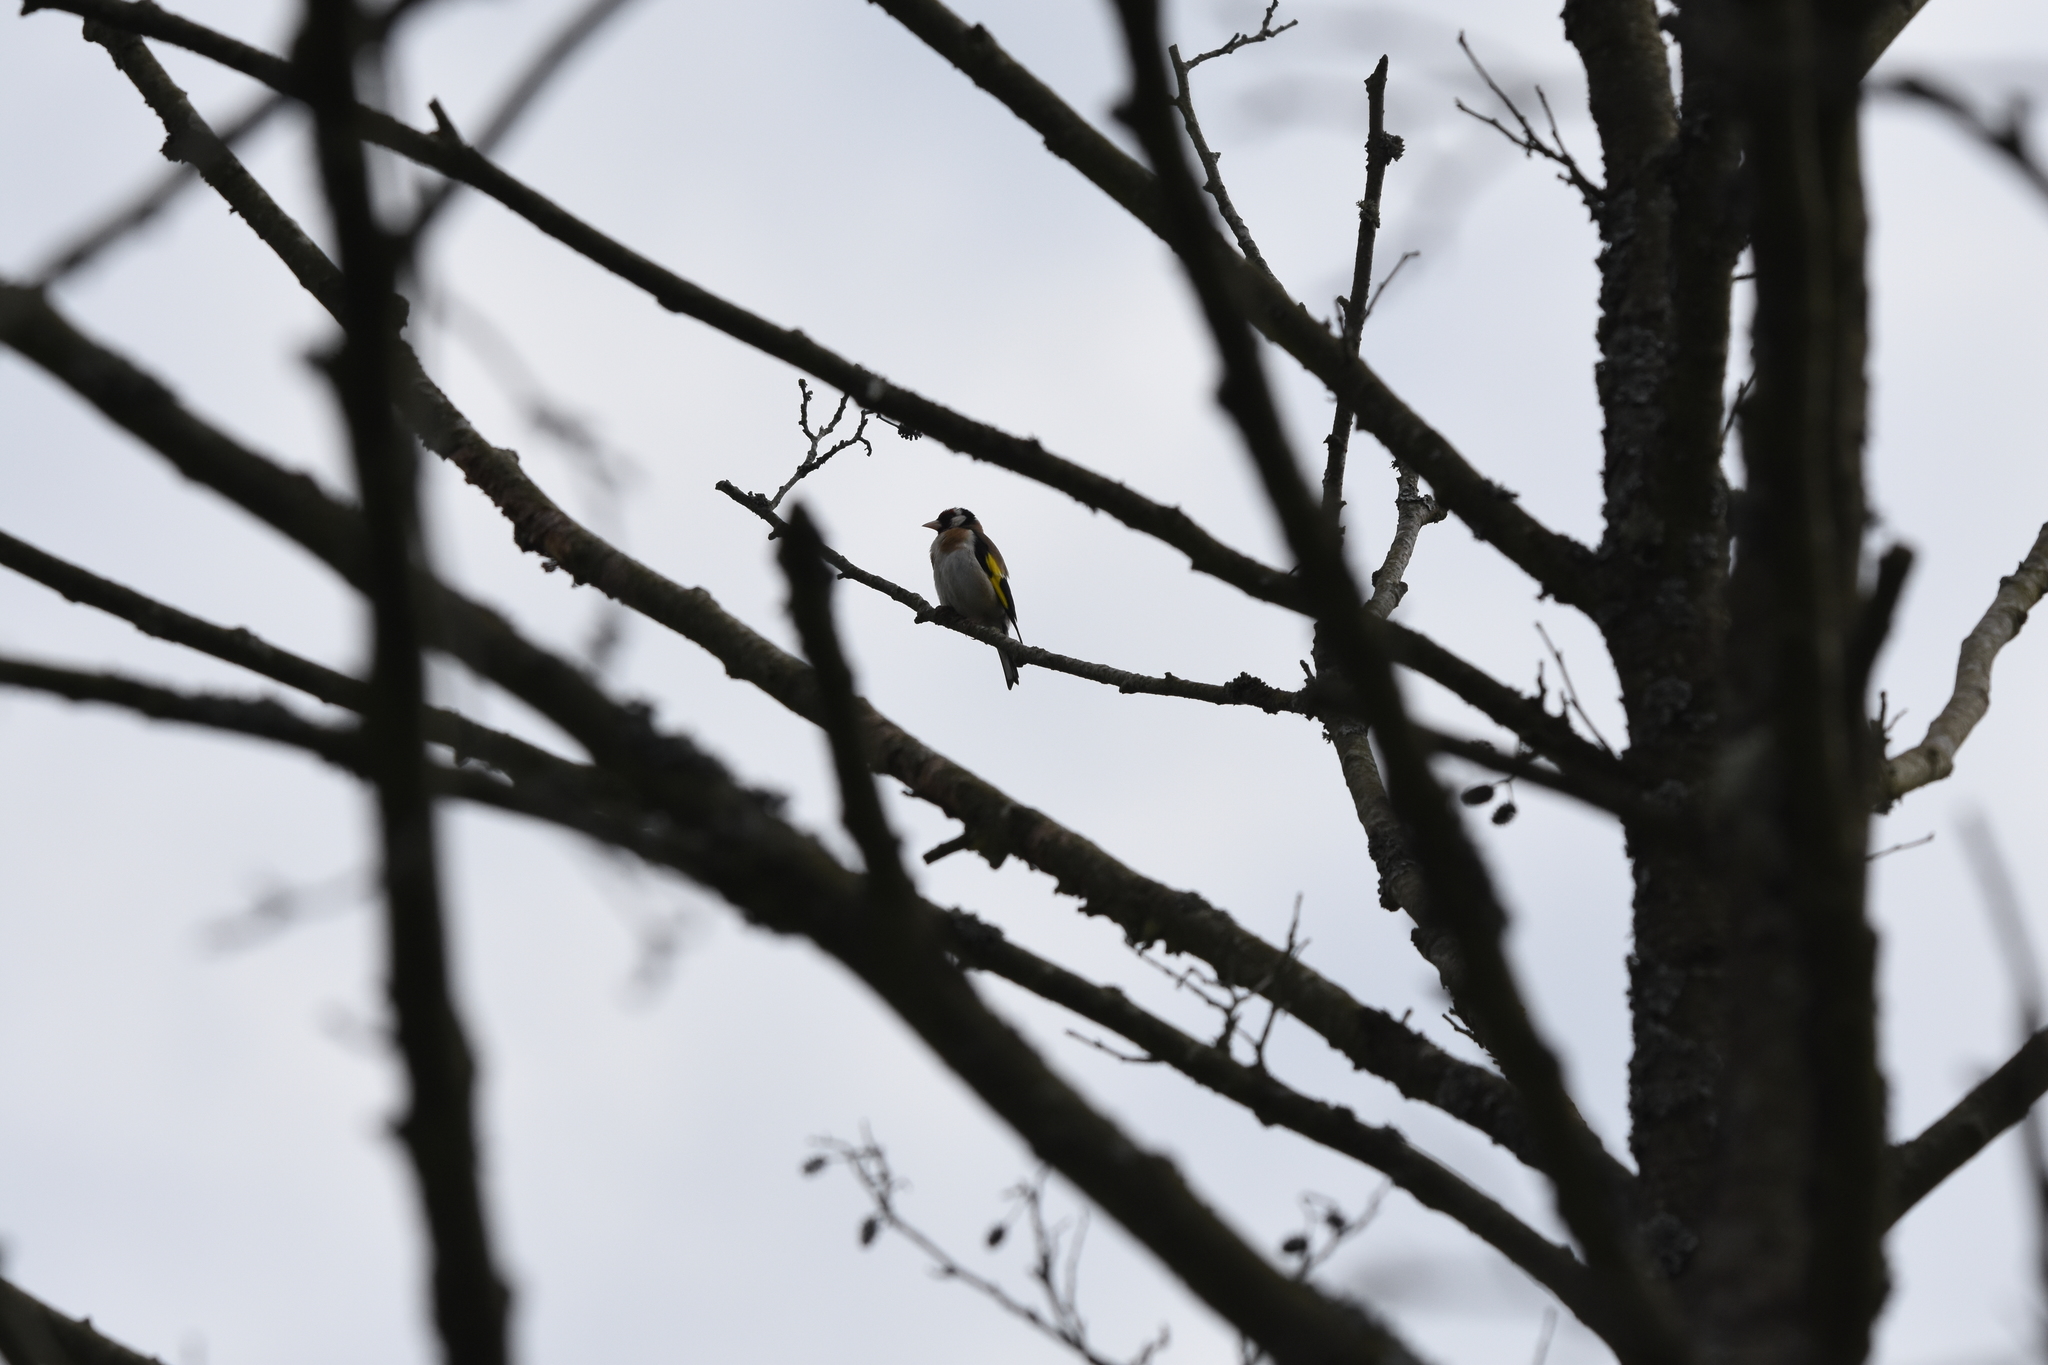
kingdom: Animalia
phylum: Chordata
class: Aves
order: Passeriformes
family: Fringillidae
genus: Carduelis
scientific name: Carduelis carduelis
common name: European goldfinch
